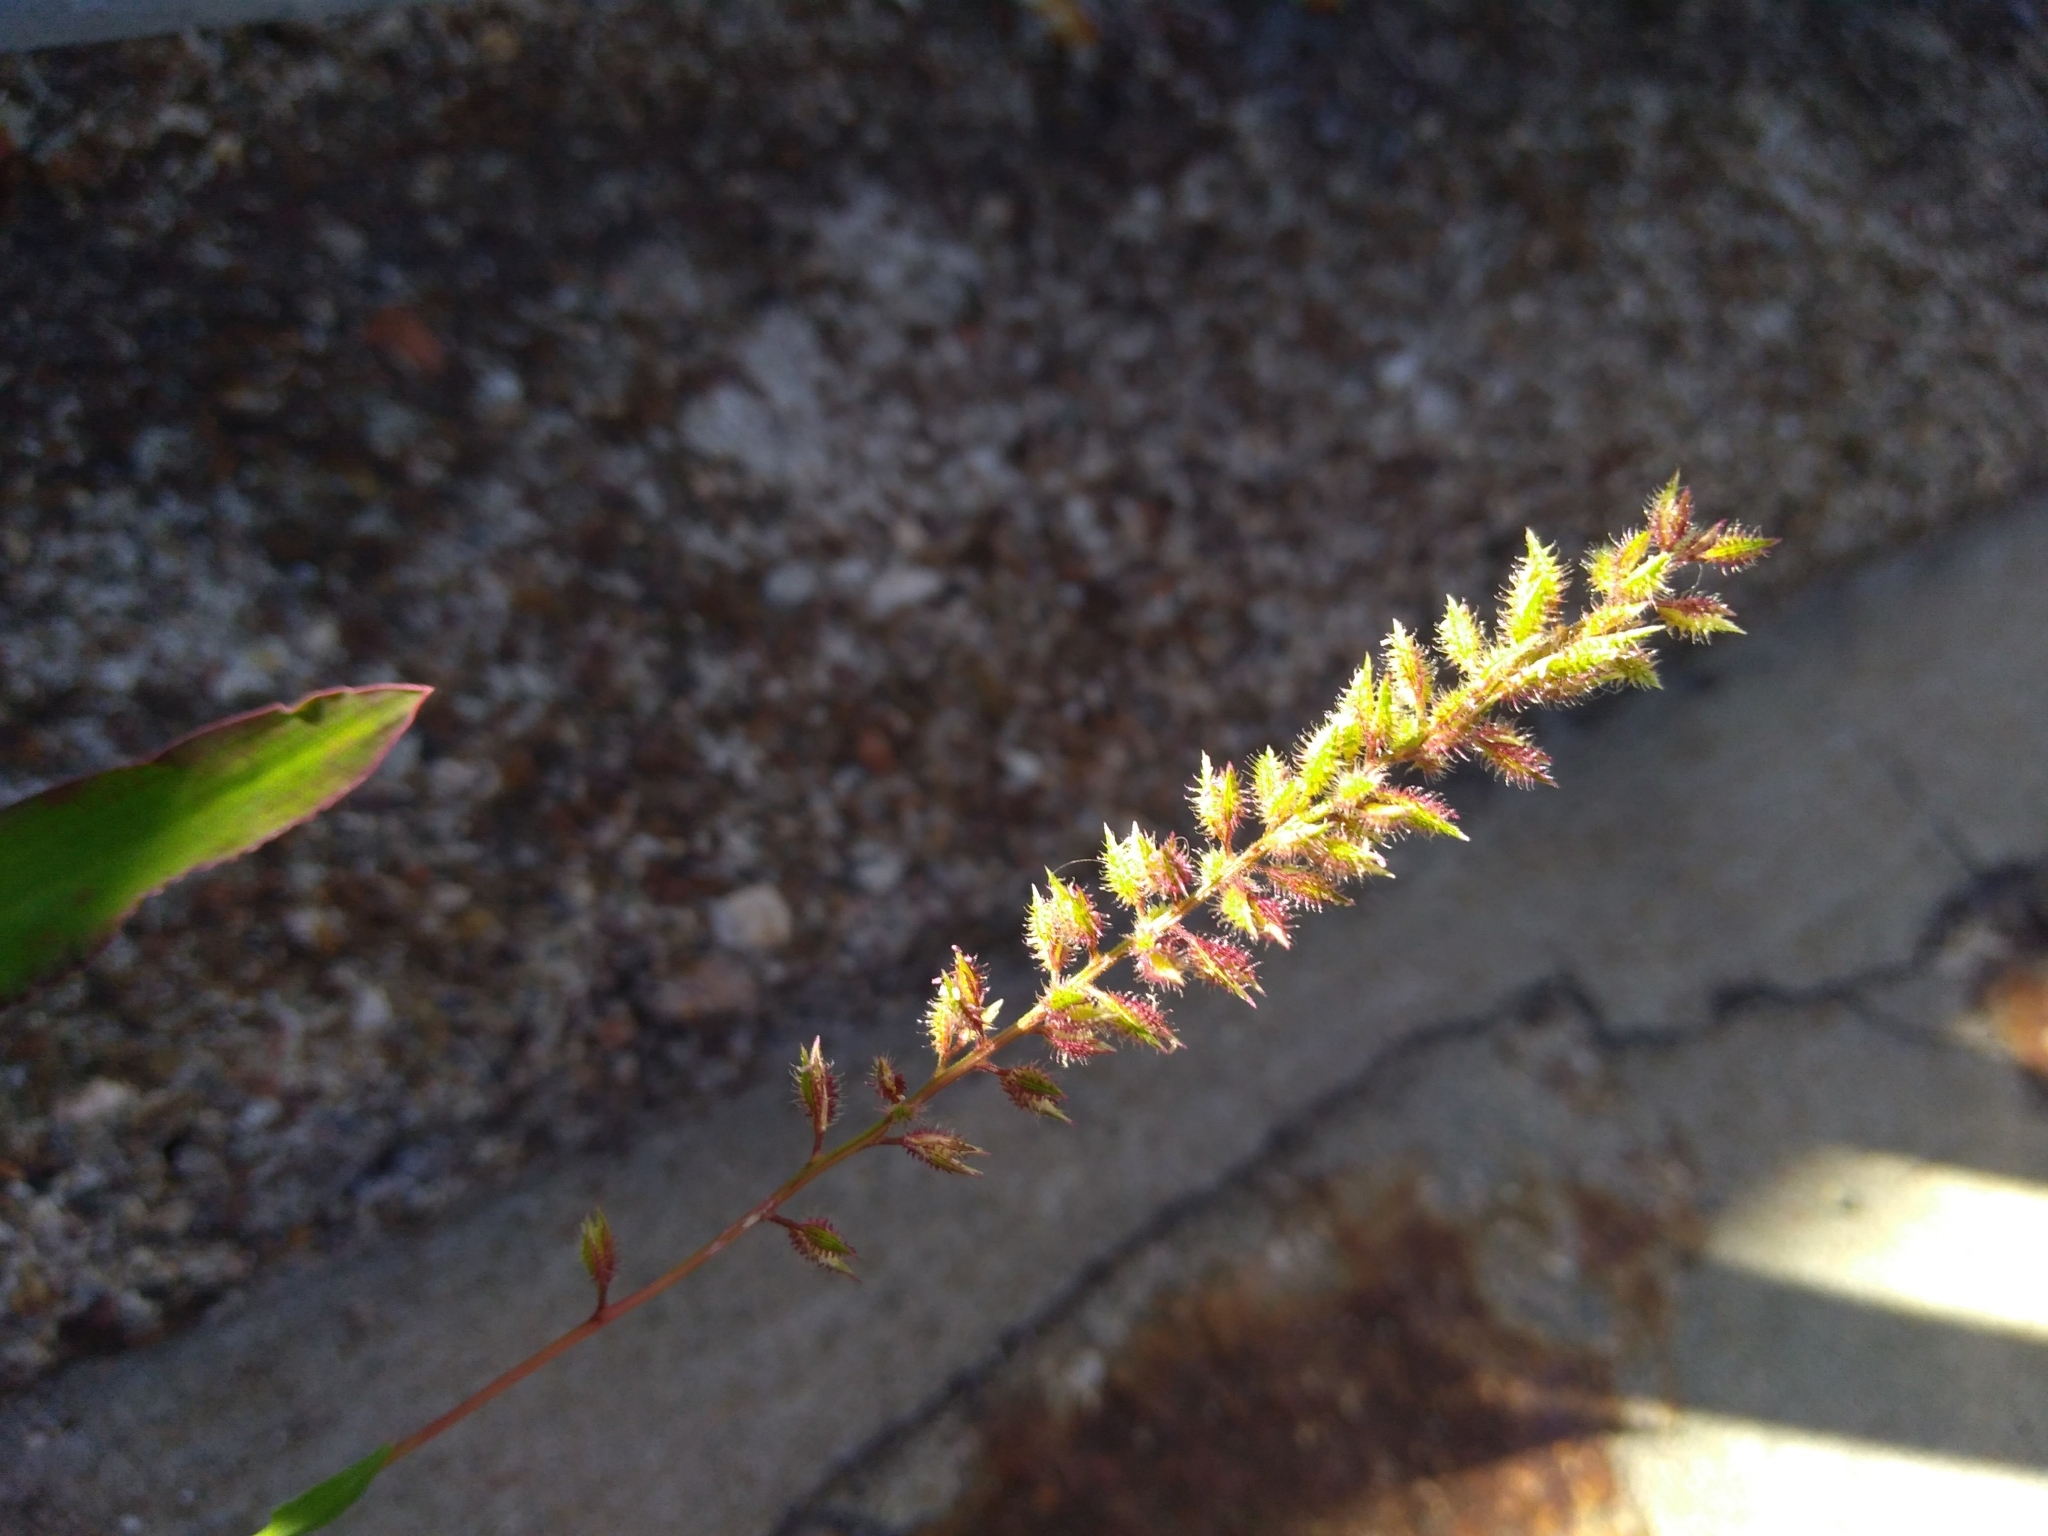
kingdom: Plantae
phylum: Tracheophyta
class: Liliopsida
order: Poales
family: Poaceae
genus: Tragus
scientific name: Tragus racemosus
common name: European bur-grass
